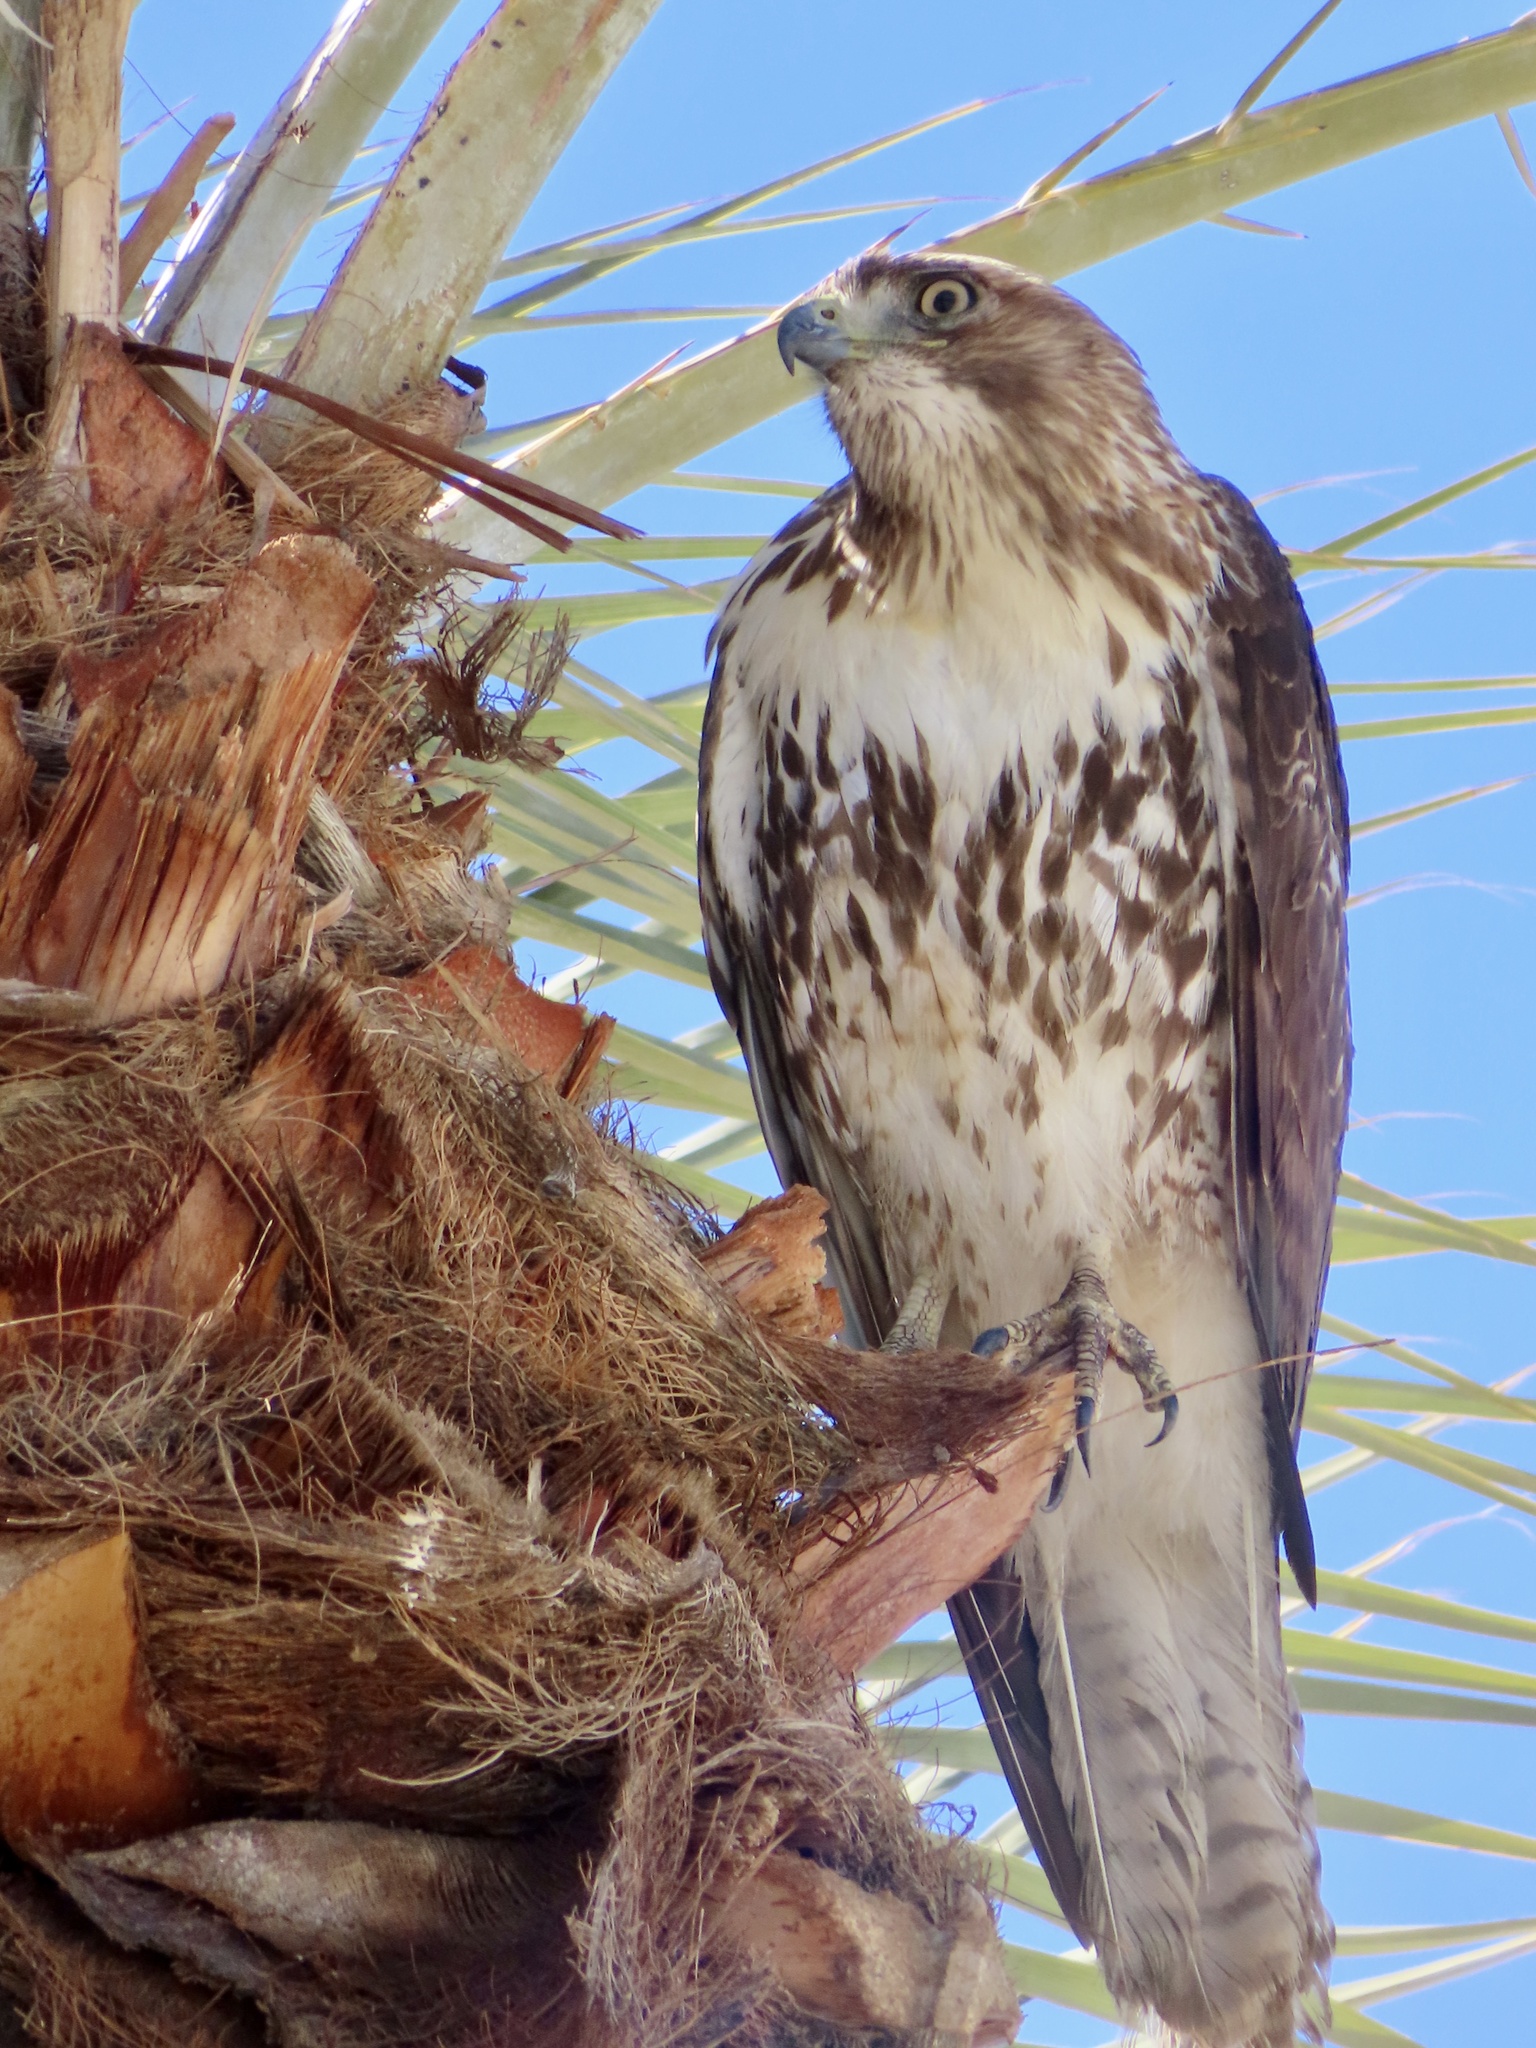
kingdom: Animalia
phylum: Chordata
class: Aves
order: Accipitriformes
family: Accipitridae
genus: Buteo
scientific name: Buteo jamaicensis
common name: Red-tailed hawk
